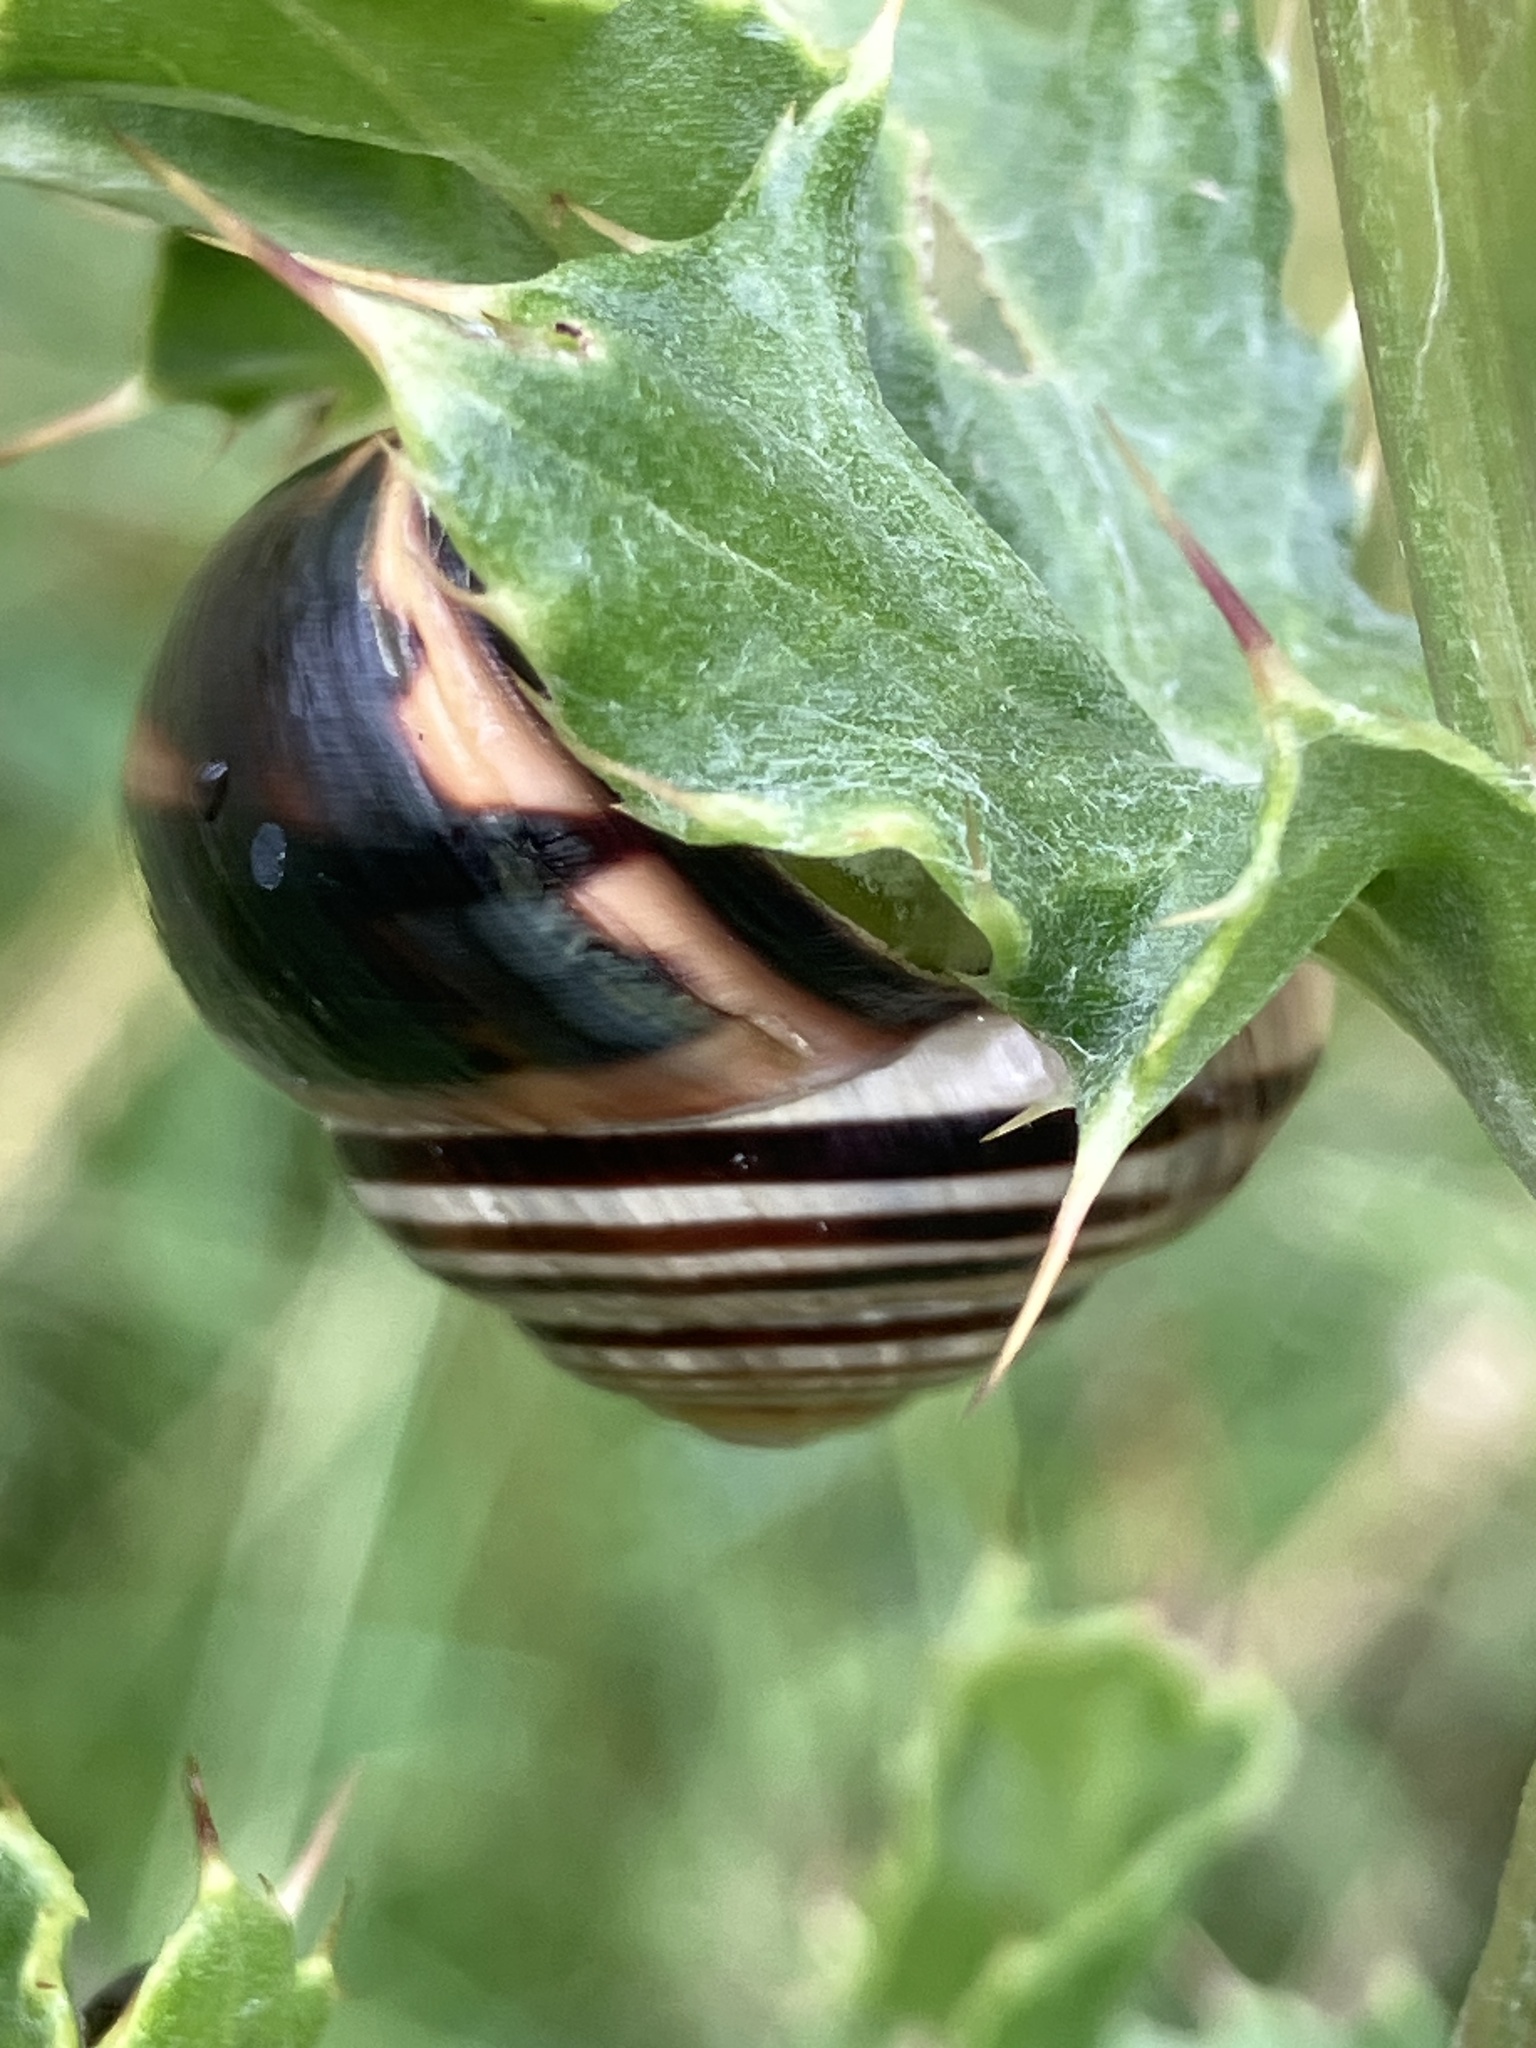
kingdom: Animalia
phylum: Mollusca
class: Gastropoda
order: Stylommatophora
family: Helicidae
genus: Cepaea
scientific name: Cepaea nemoralis
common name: Grovesnail
